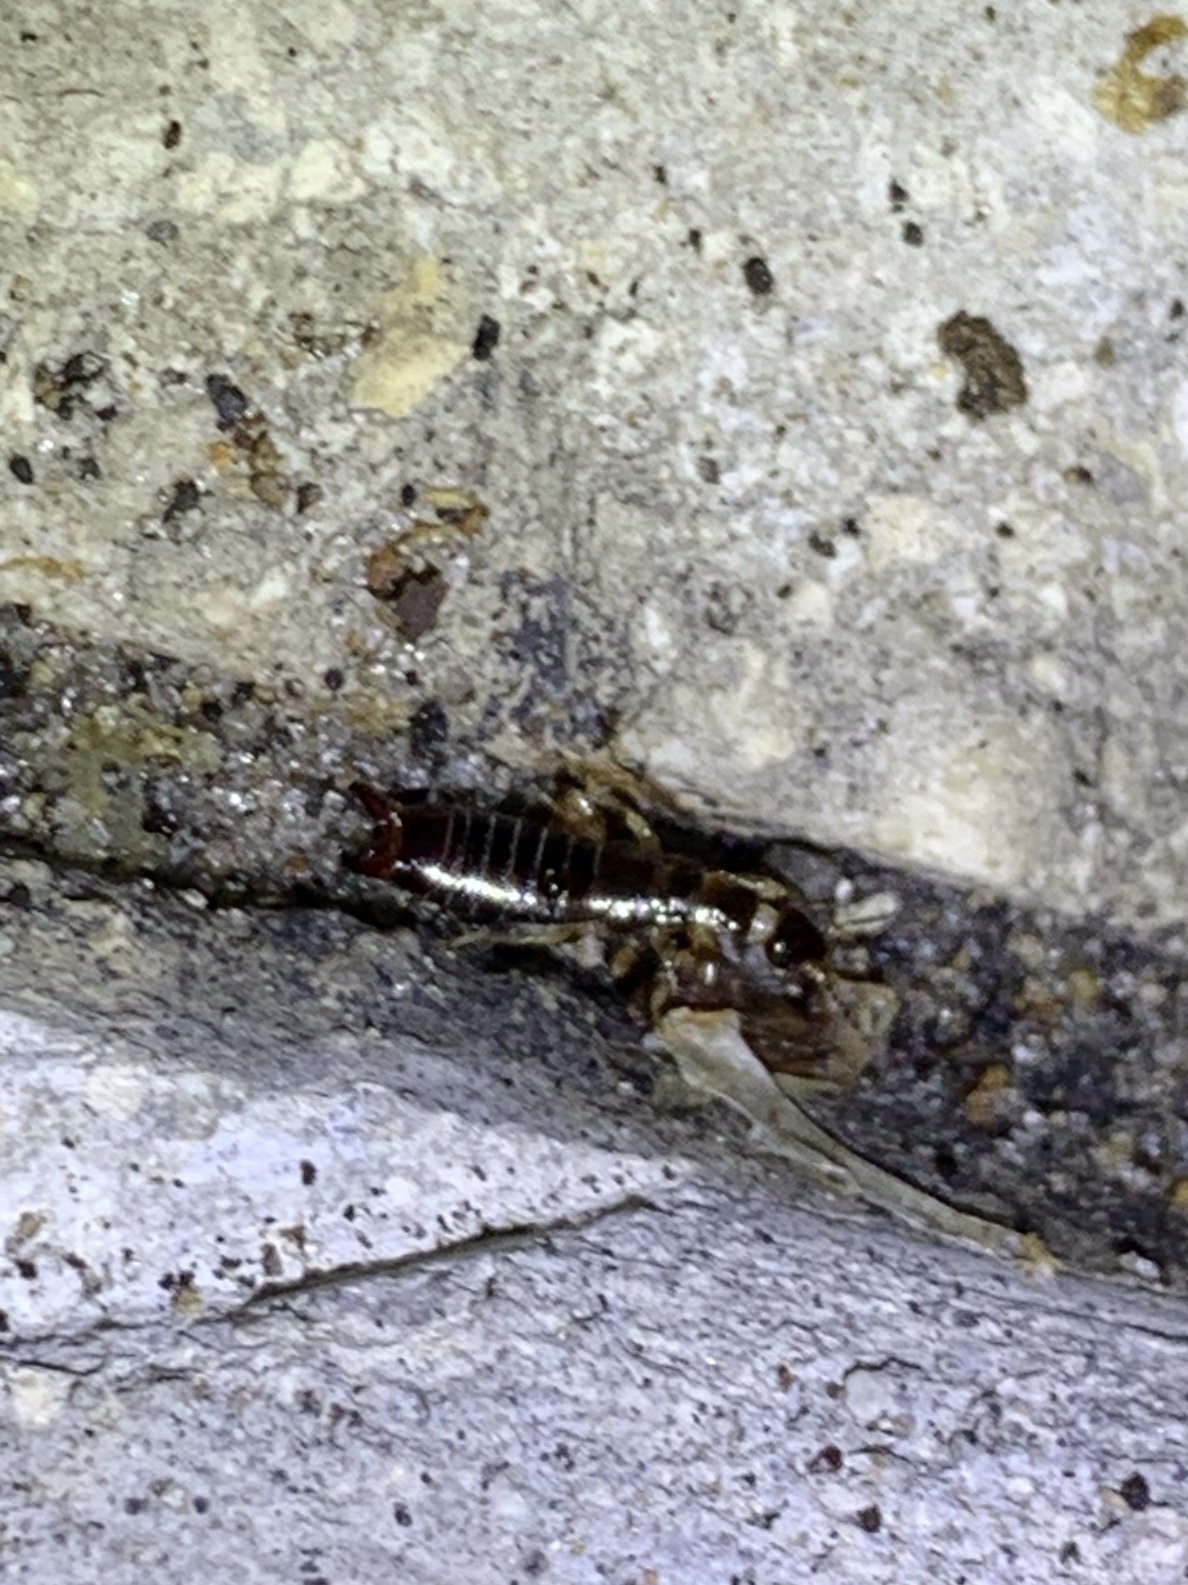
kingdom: Animalia
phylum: Arthropoda
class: Insecta
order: Dermaptera
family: Anisolabididae
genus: Euborellia
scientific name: Euborellia annulata
